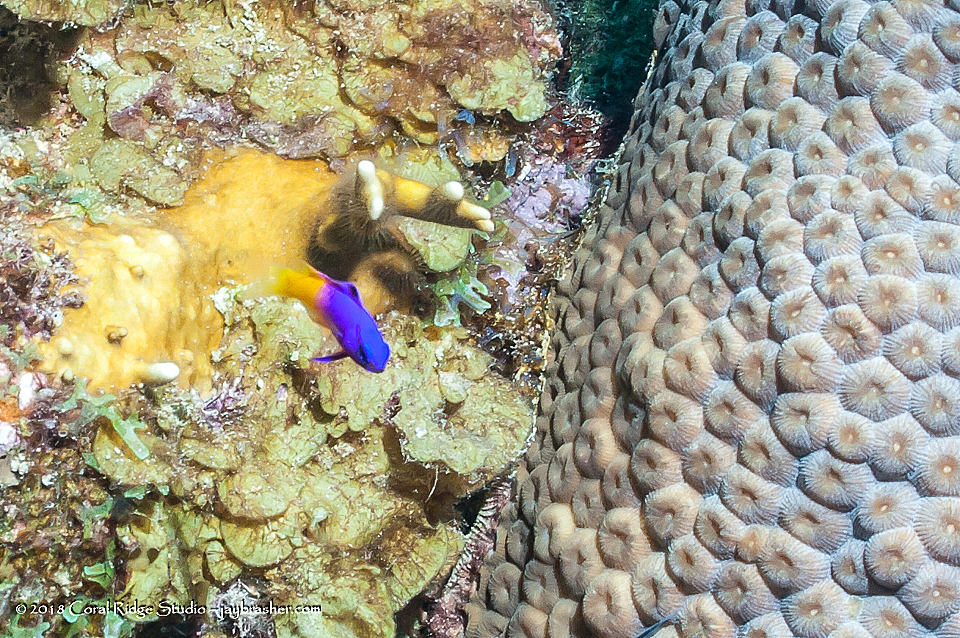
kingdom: Animalia
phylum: Chordata
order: Perciformes
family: Grammatidae
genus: Gramma
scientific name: Gramma loreto
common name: Fairy basslet
